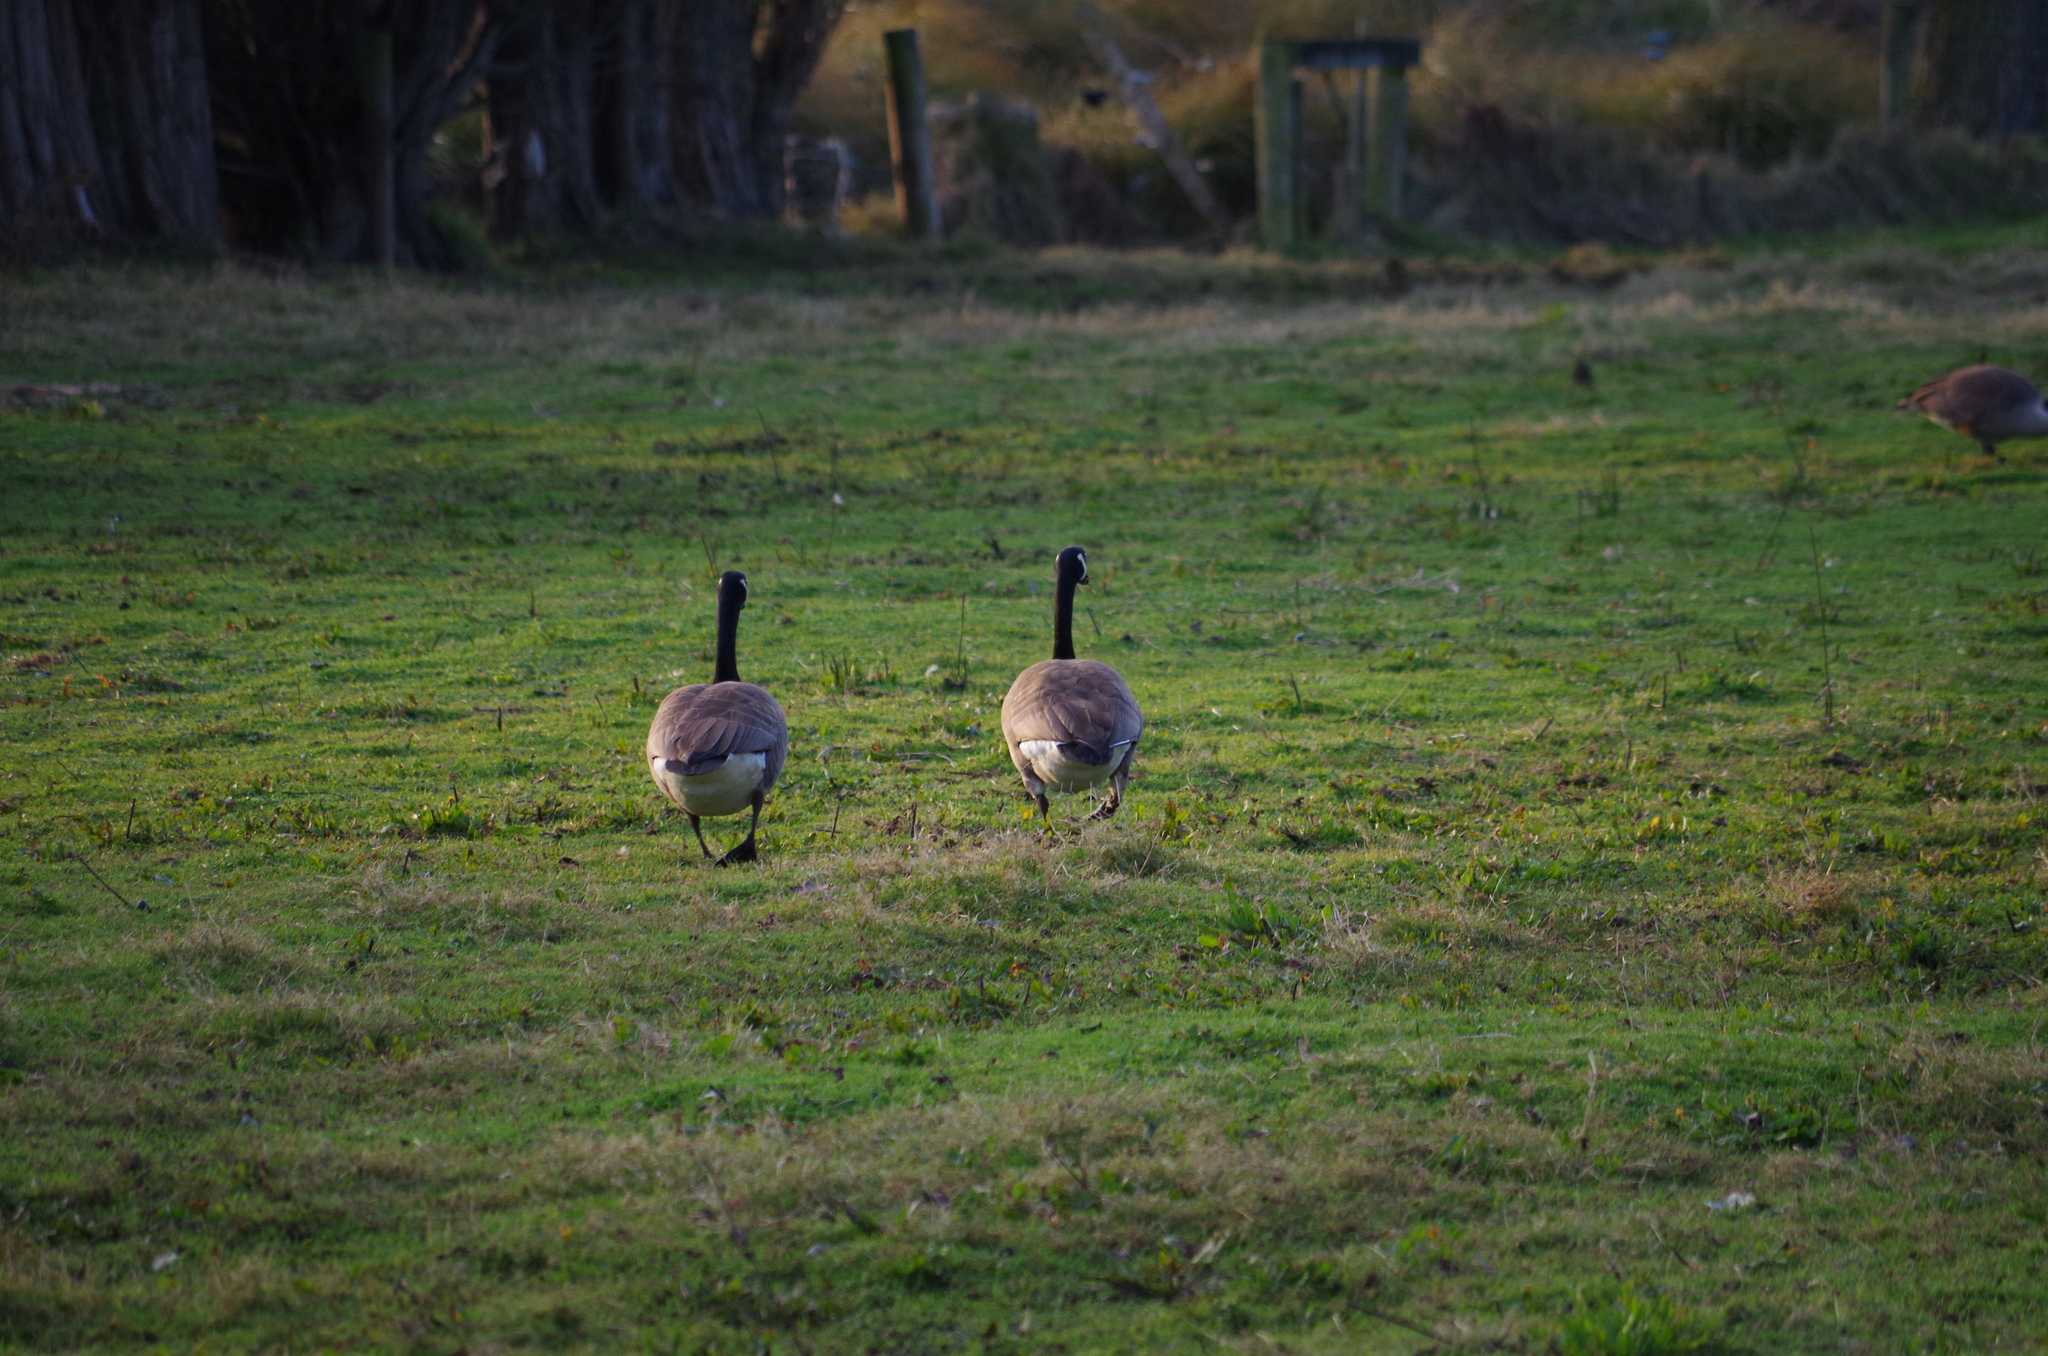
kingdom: Animalia
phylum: Chordata
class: Aves
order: Anseriformes
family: Anatidae
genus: Branta
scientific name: Branta canadensis
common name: Canada goose
